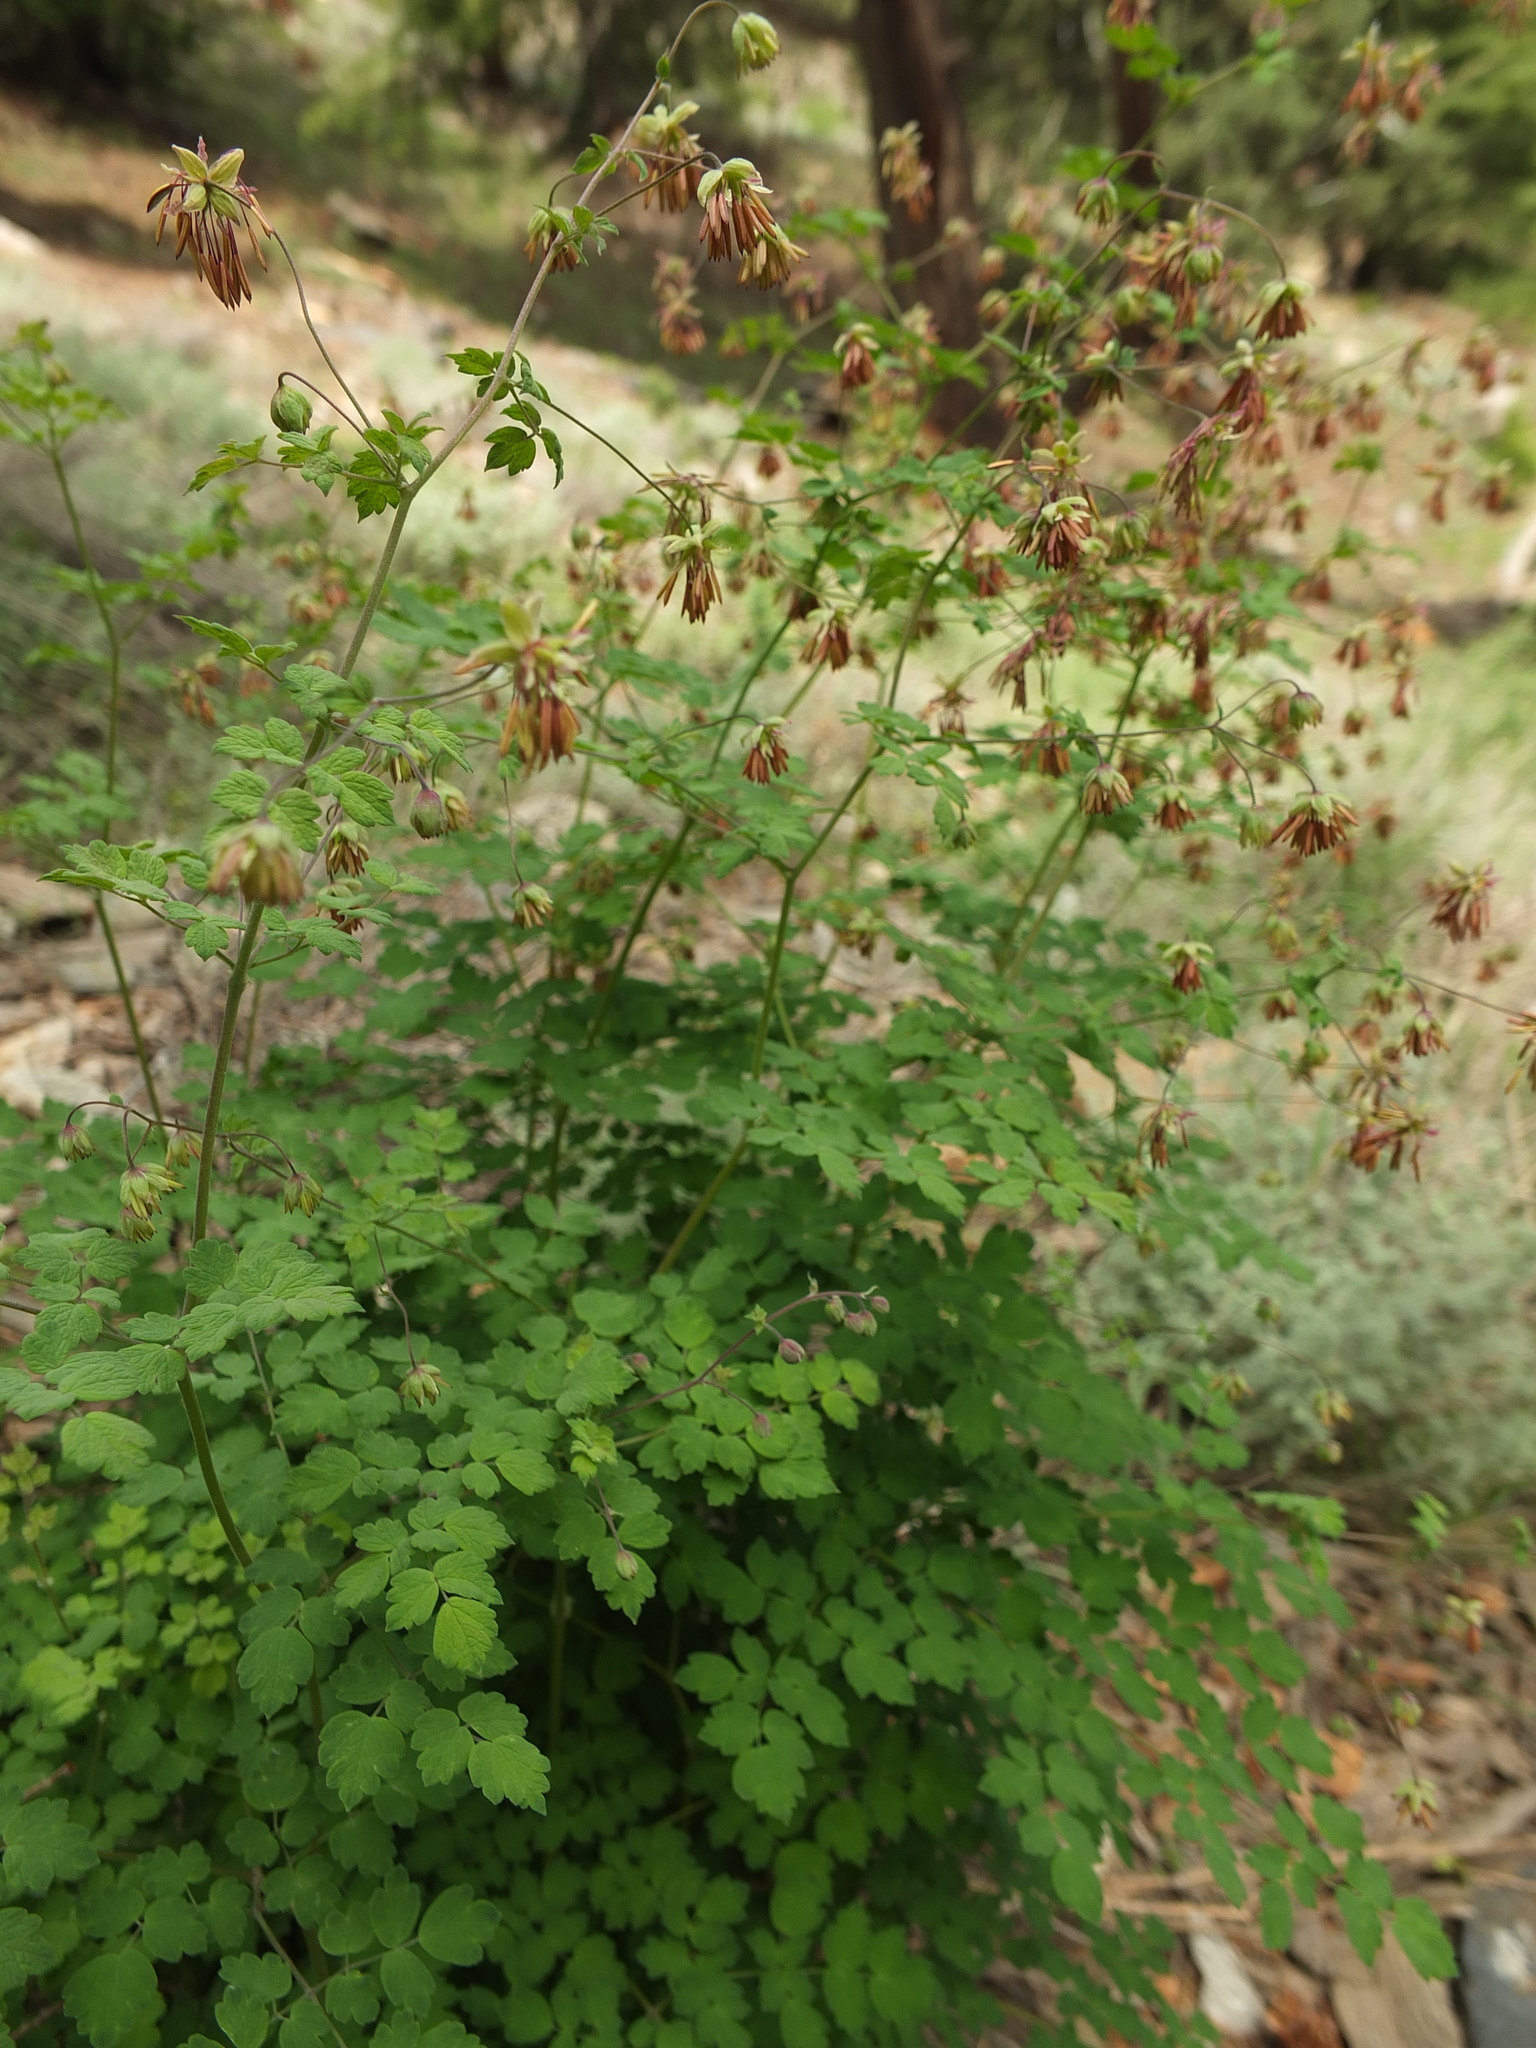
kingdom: Plantae
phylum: Tracheophyta
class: Magnoliopsida
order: Ranunculales
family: Ranunculaceae
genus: Thalictrum
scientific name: Thalictrum cultratum
